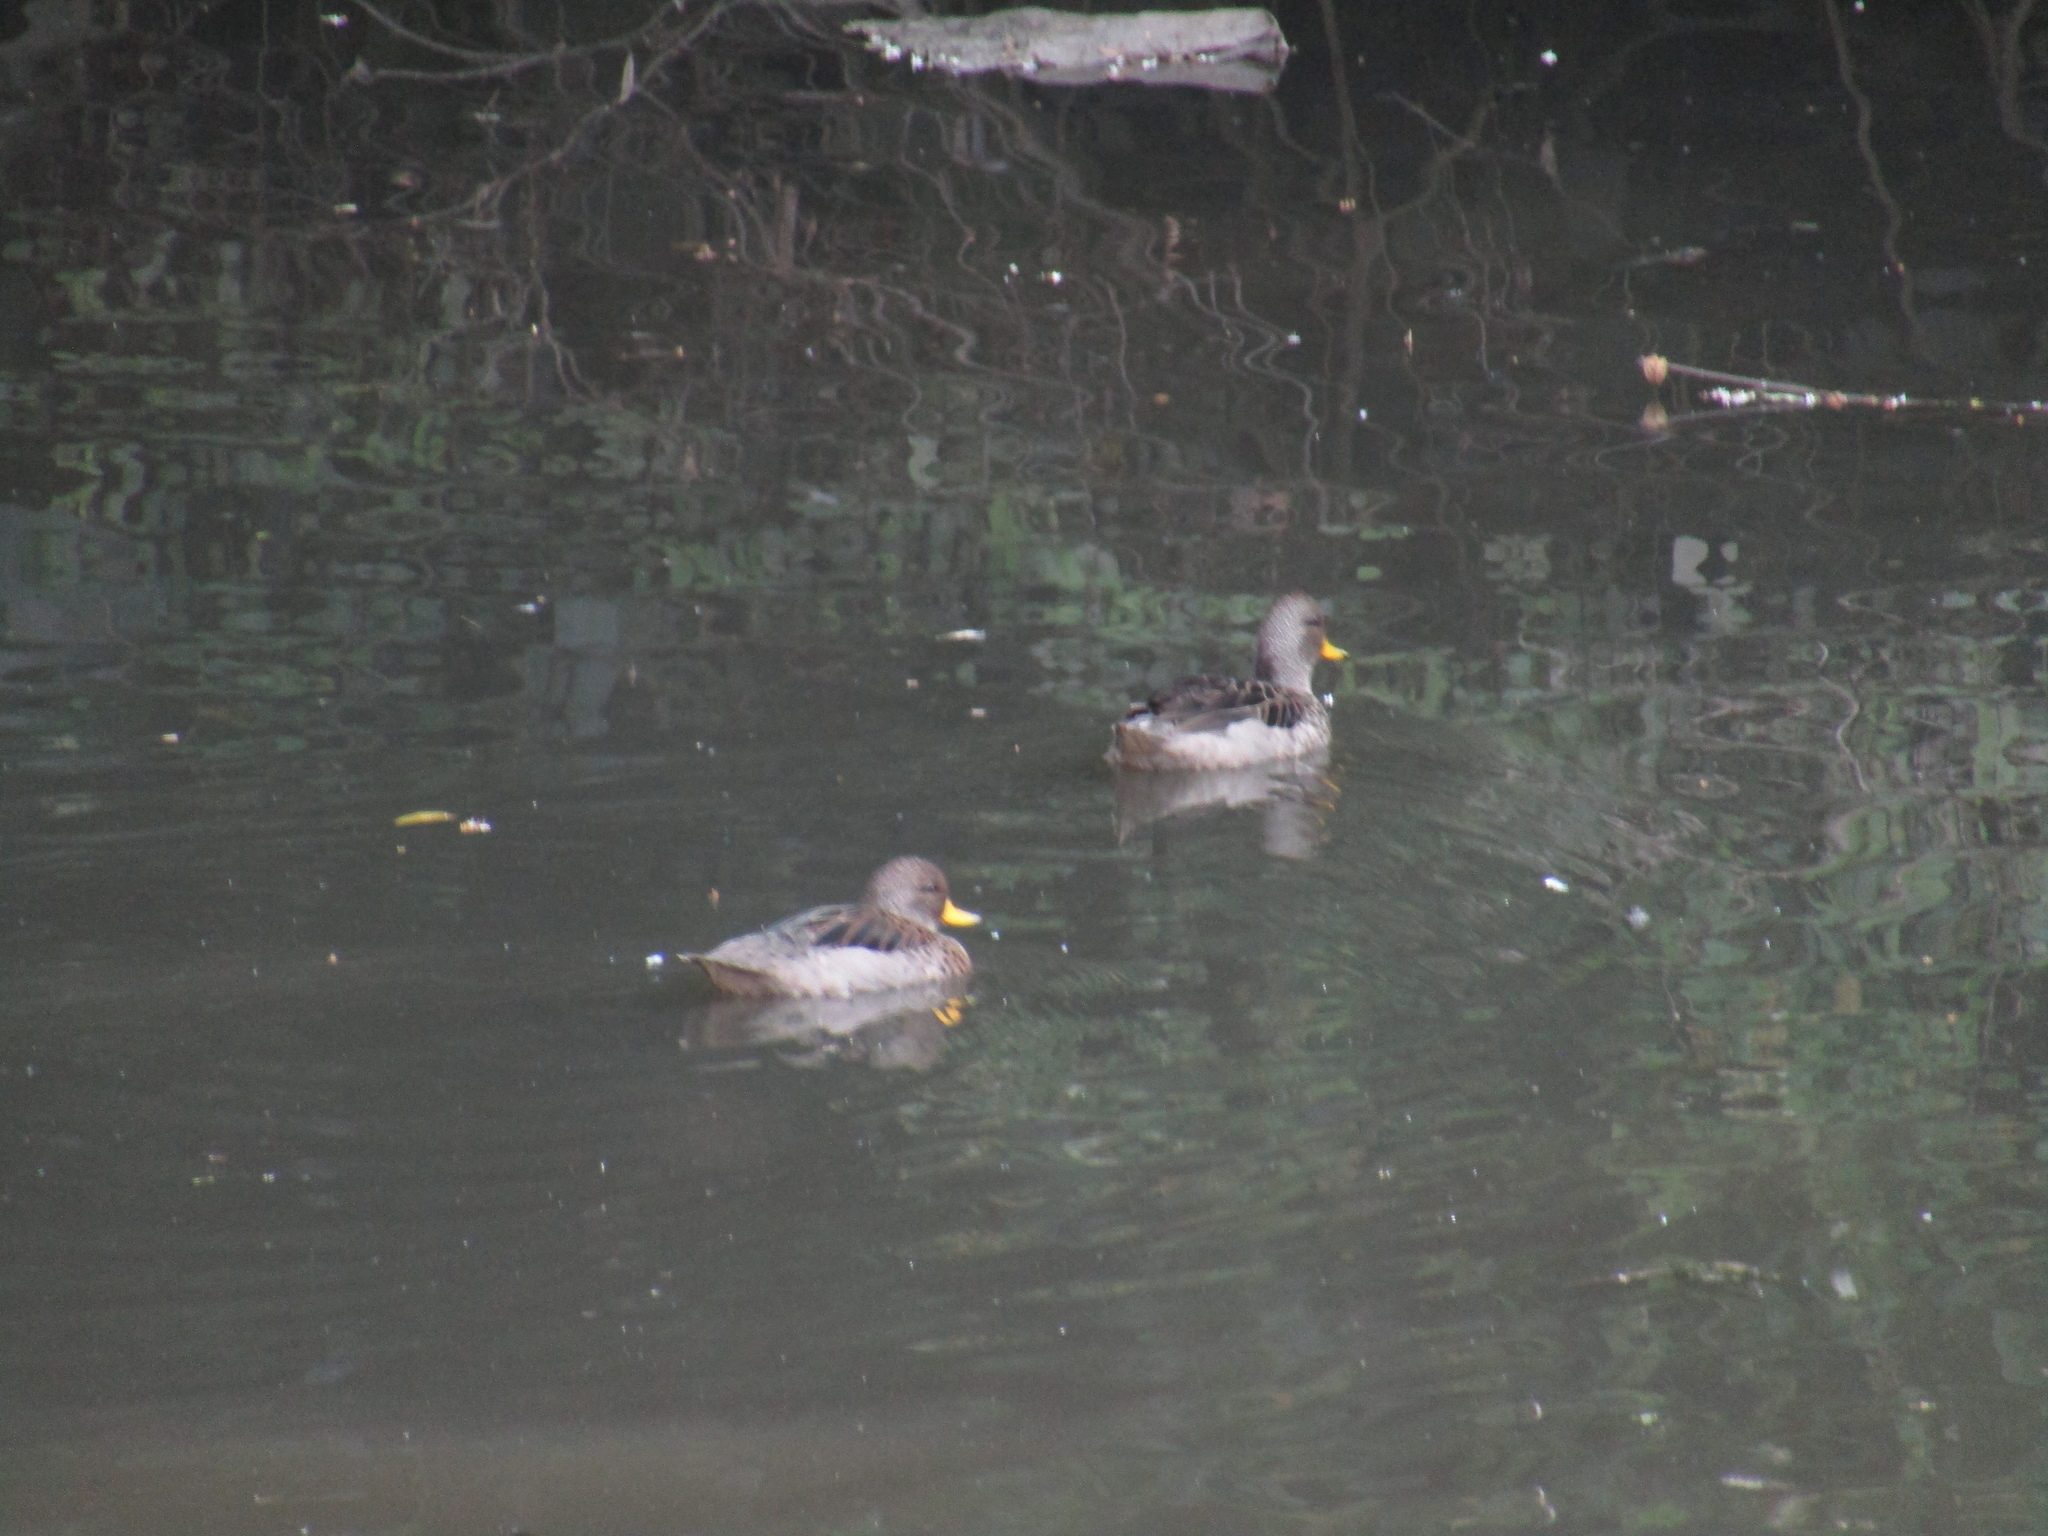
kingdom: Animalia
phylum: Chordata
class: Aves
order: Anseriformes
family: Anatidae
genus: Anas
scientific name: Anas flavirostris
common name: Yellow-billed teal
